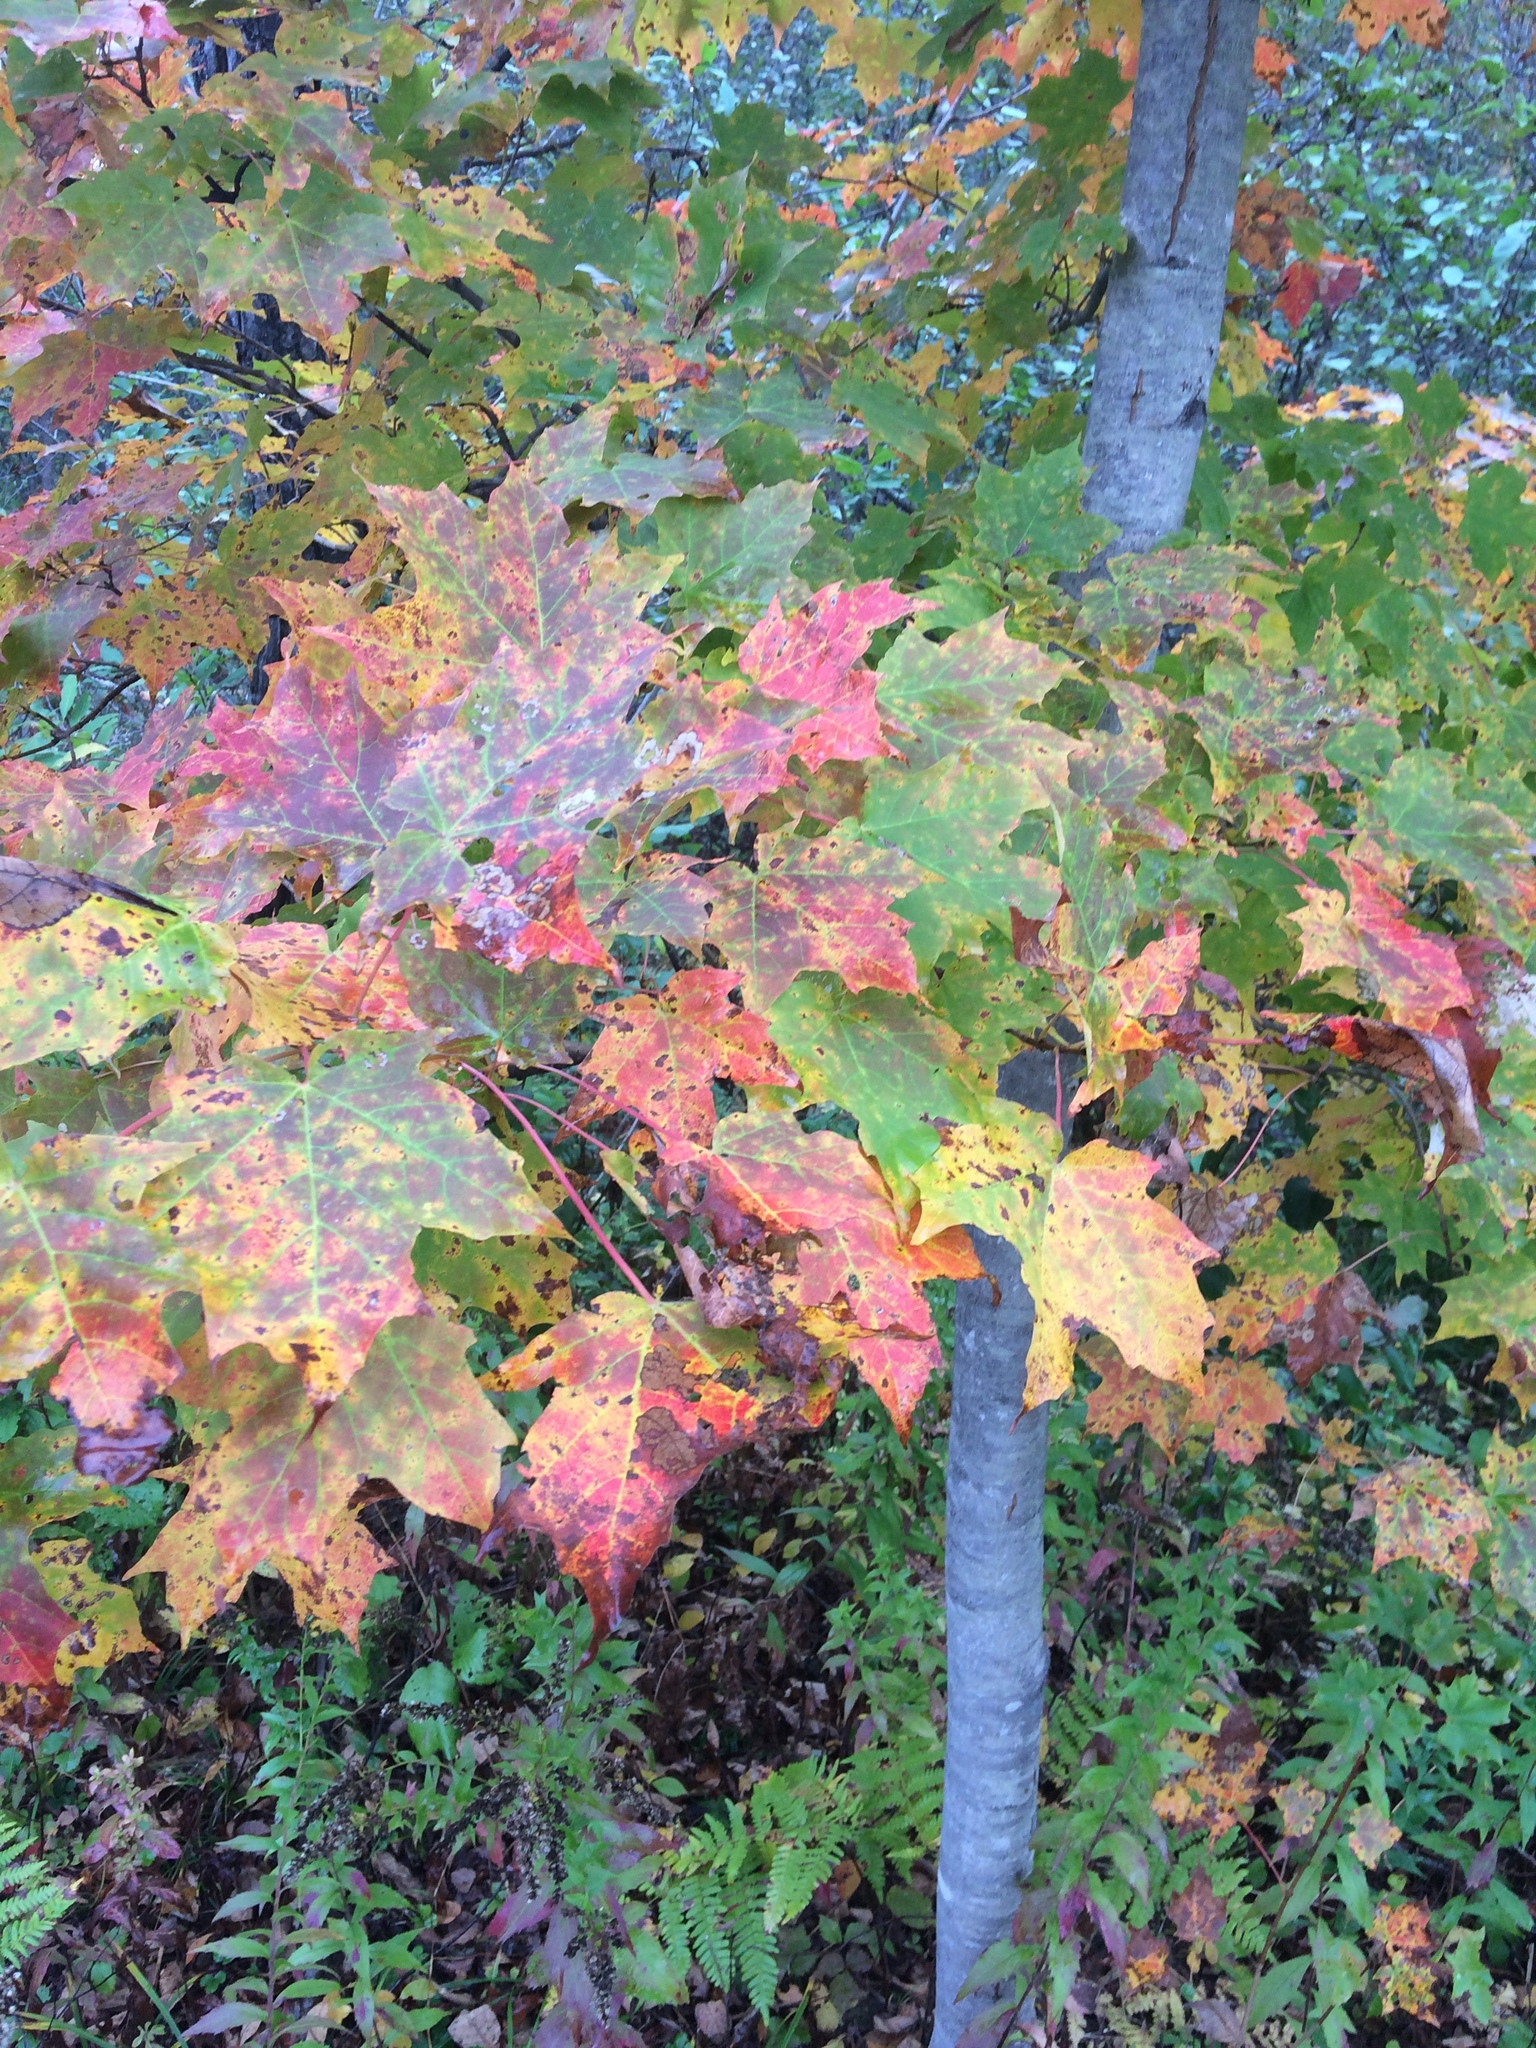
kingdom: Plantae
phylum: Tracheophyta
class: Magnoliopsida
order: Sapindales
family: Sapindaceae
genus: Acer
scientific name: Acer saccharum
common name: Sugar maple
